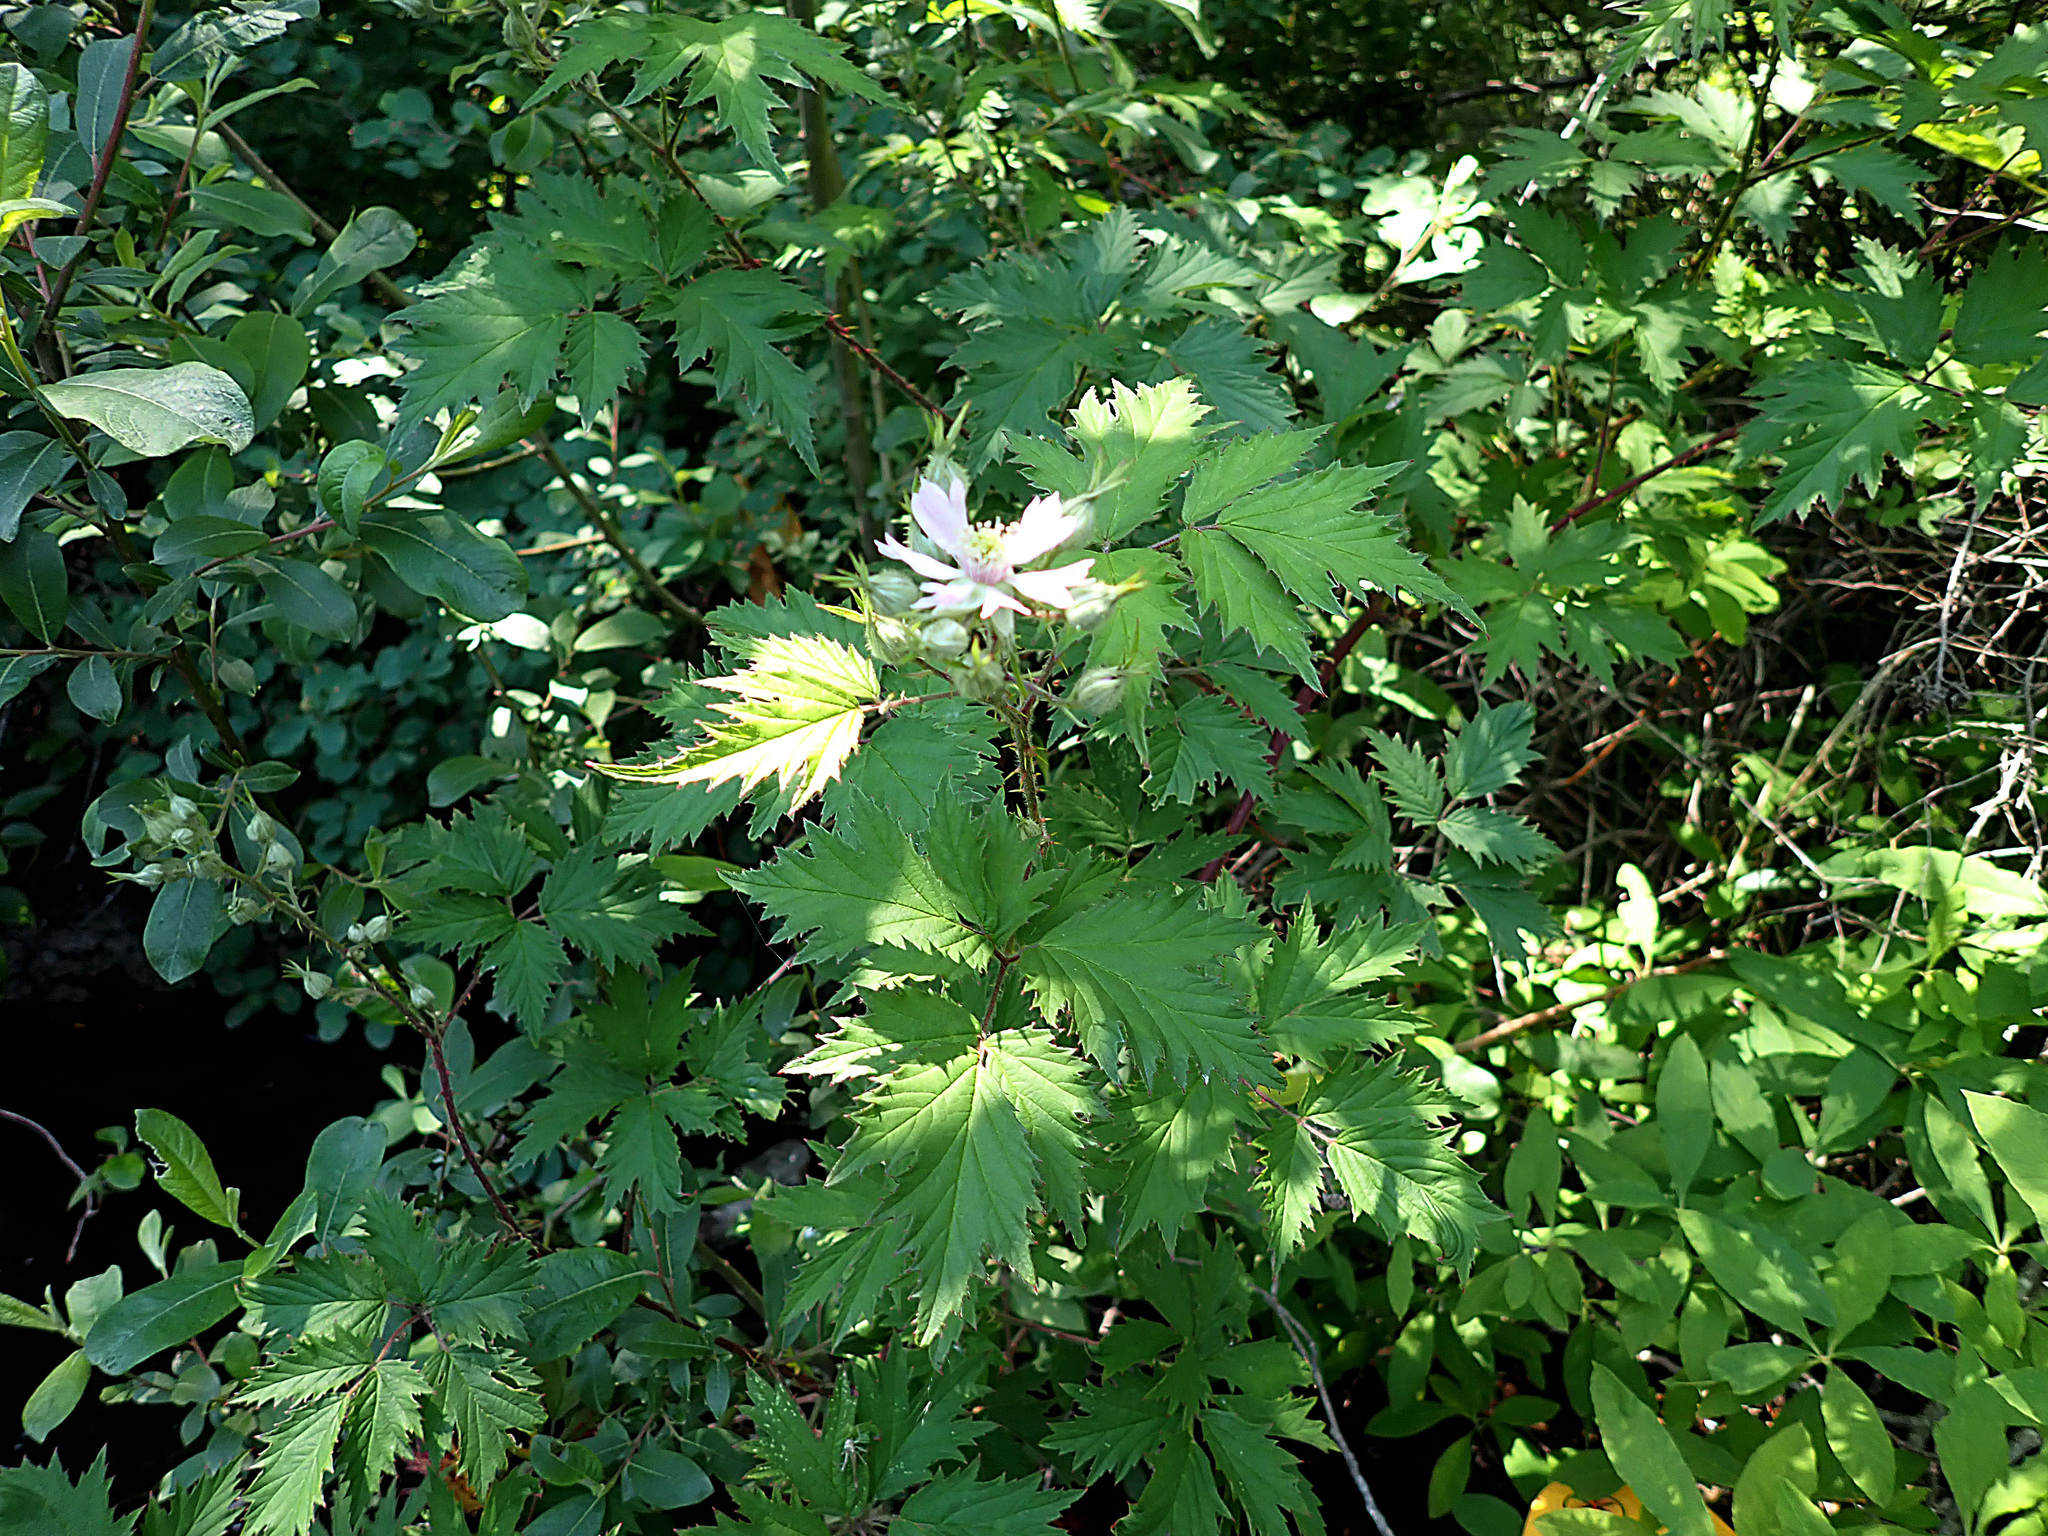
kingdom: Plantae
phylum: Tracheophyta
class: Magnoliopsida
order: Rosales
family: Rosaceae
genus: Rubus
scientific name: Rubus laciniatus
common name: Evergreen blackberry
